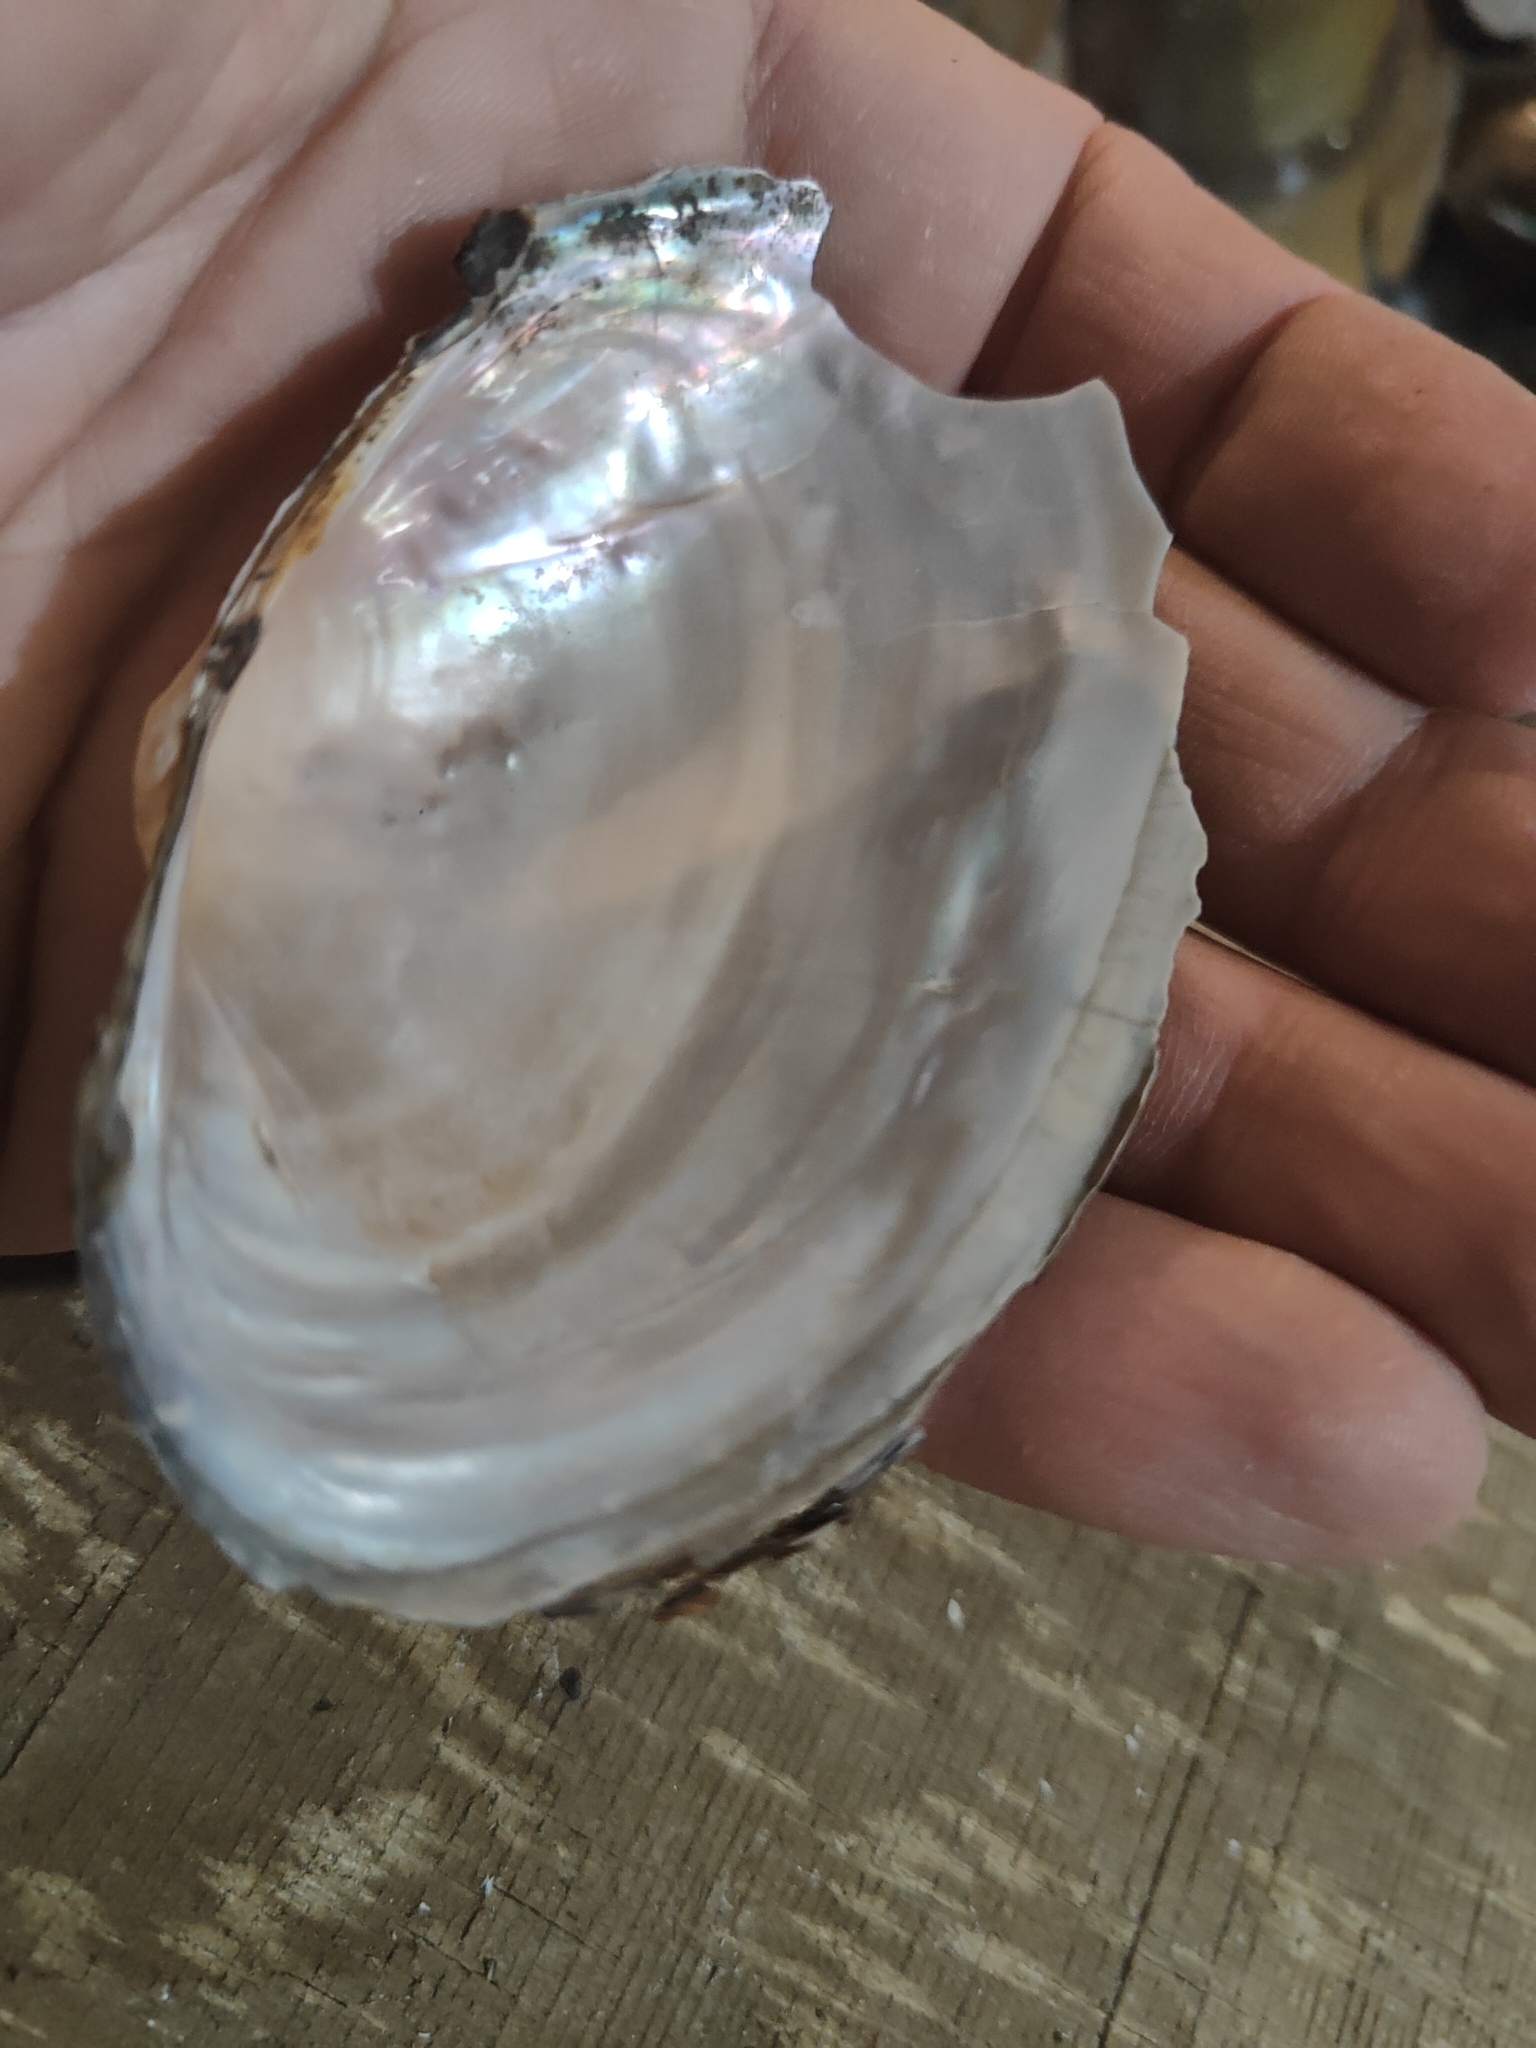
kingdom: Animalia
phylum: Mollusca
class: Bivalvia
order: Unionida
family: Unionidae
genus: Pyganodon
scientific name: Pyganodon grandis
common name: Giant floater
